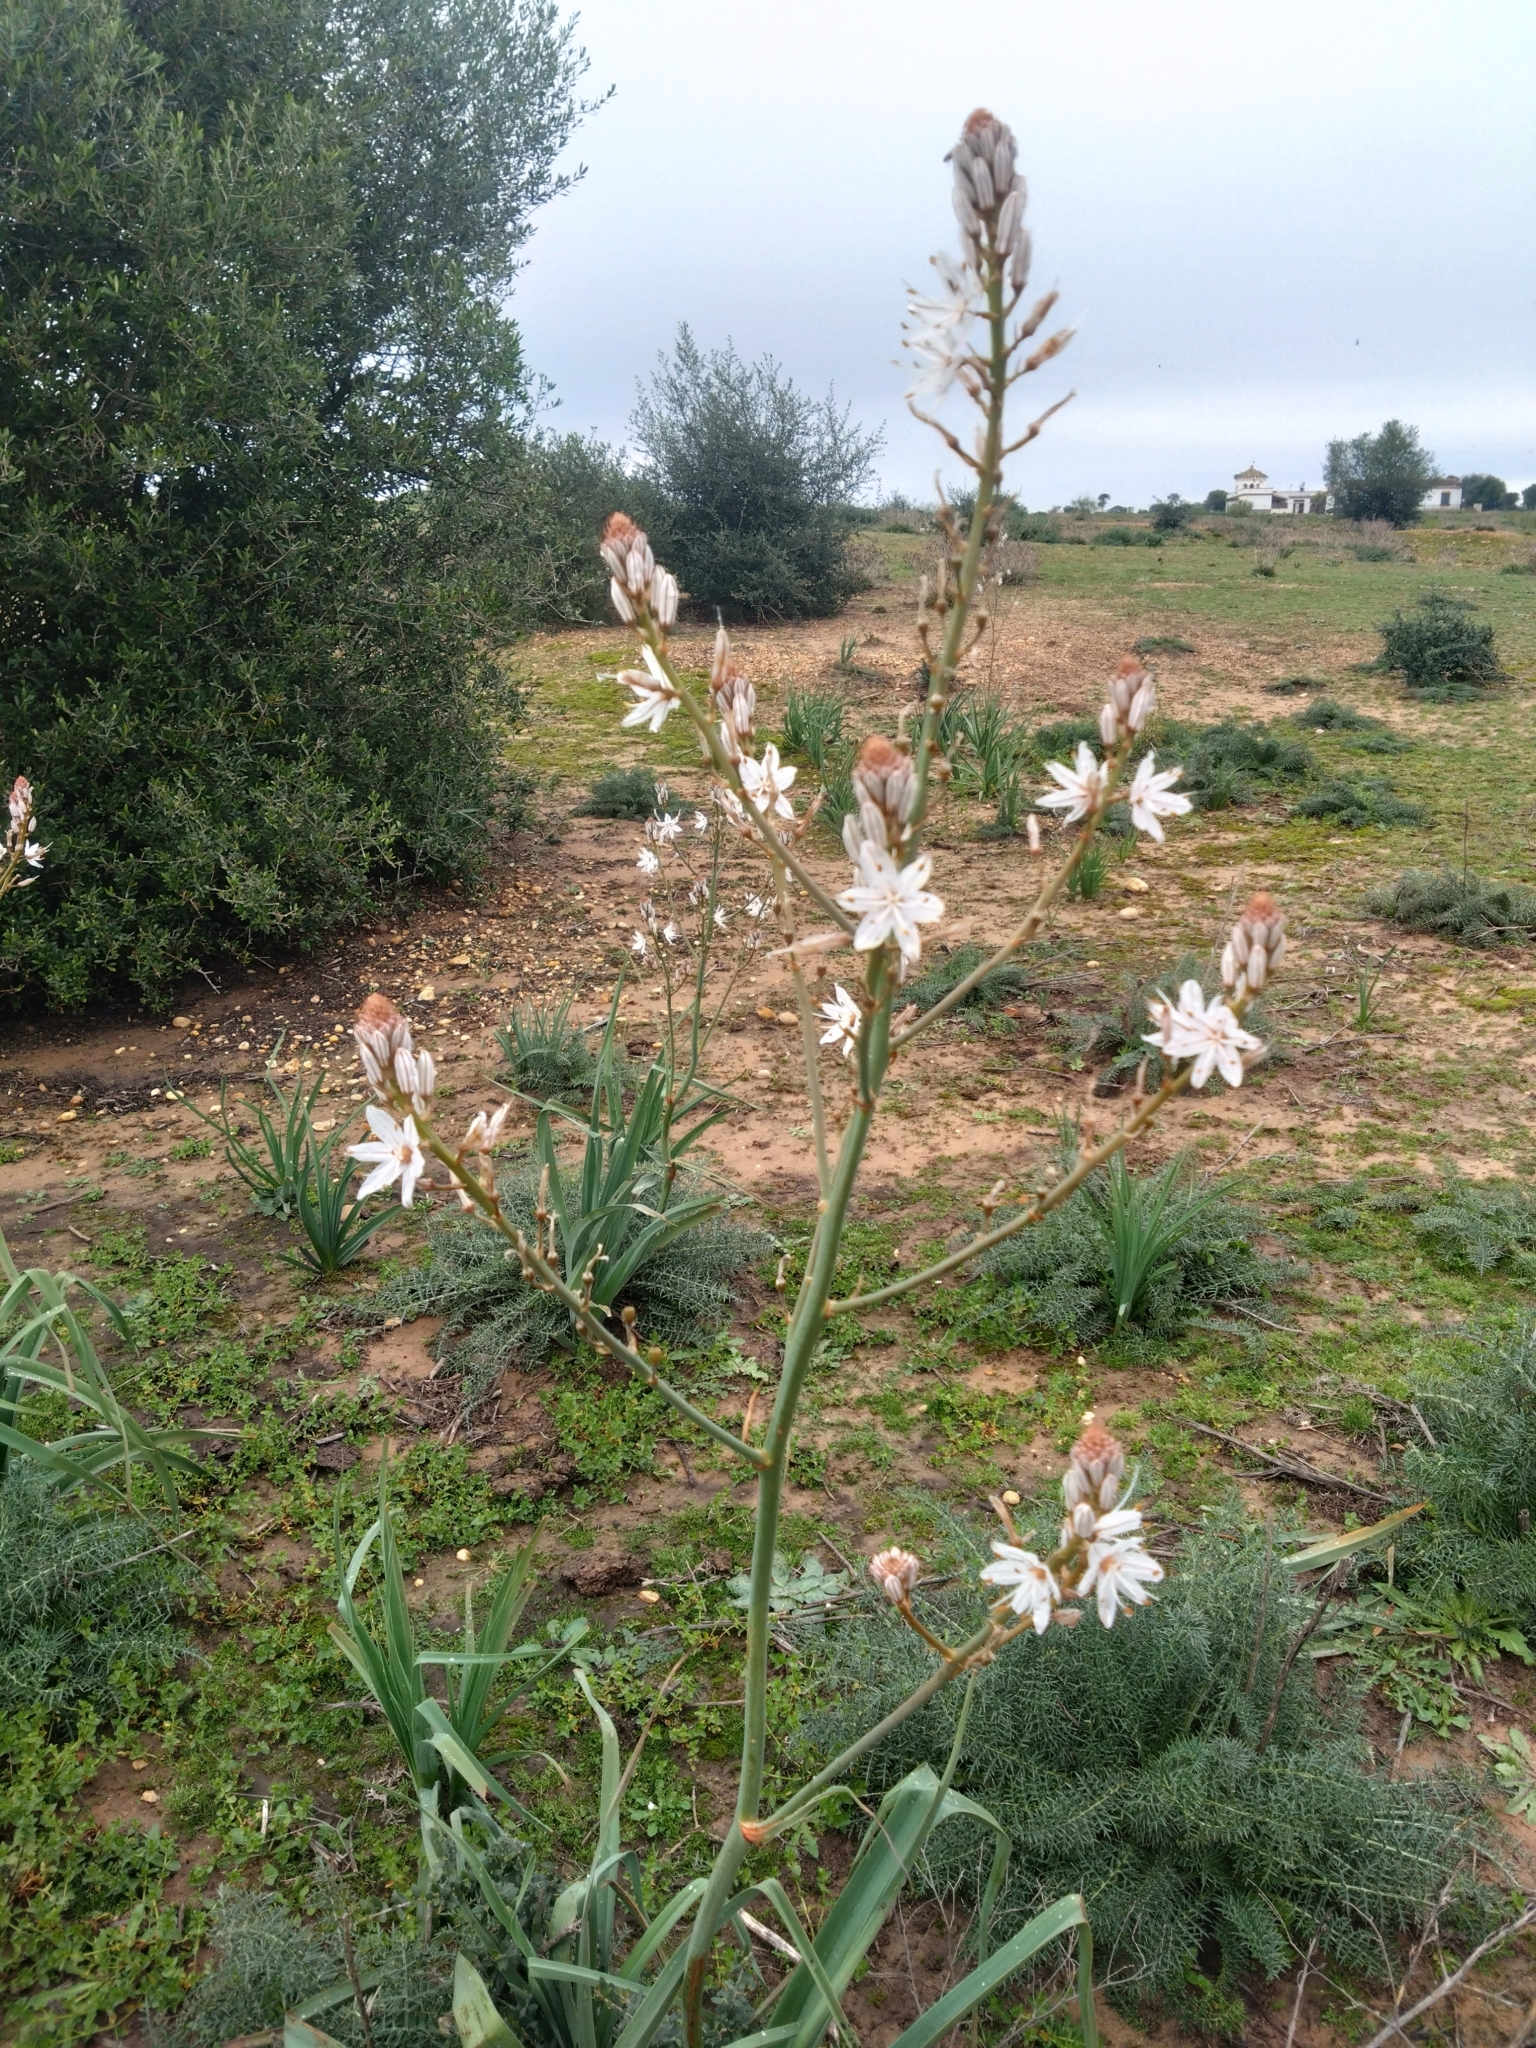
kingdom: Plantae
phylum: Tracheophyta
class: Liliopsida
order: Asparagales
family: Asphodelaceae
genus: Asphodelus
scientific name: Asphodelus ramosus
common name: Silverrod
